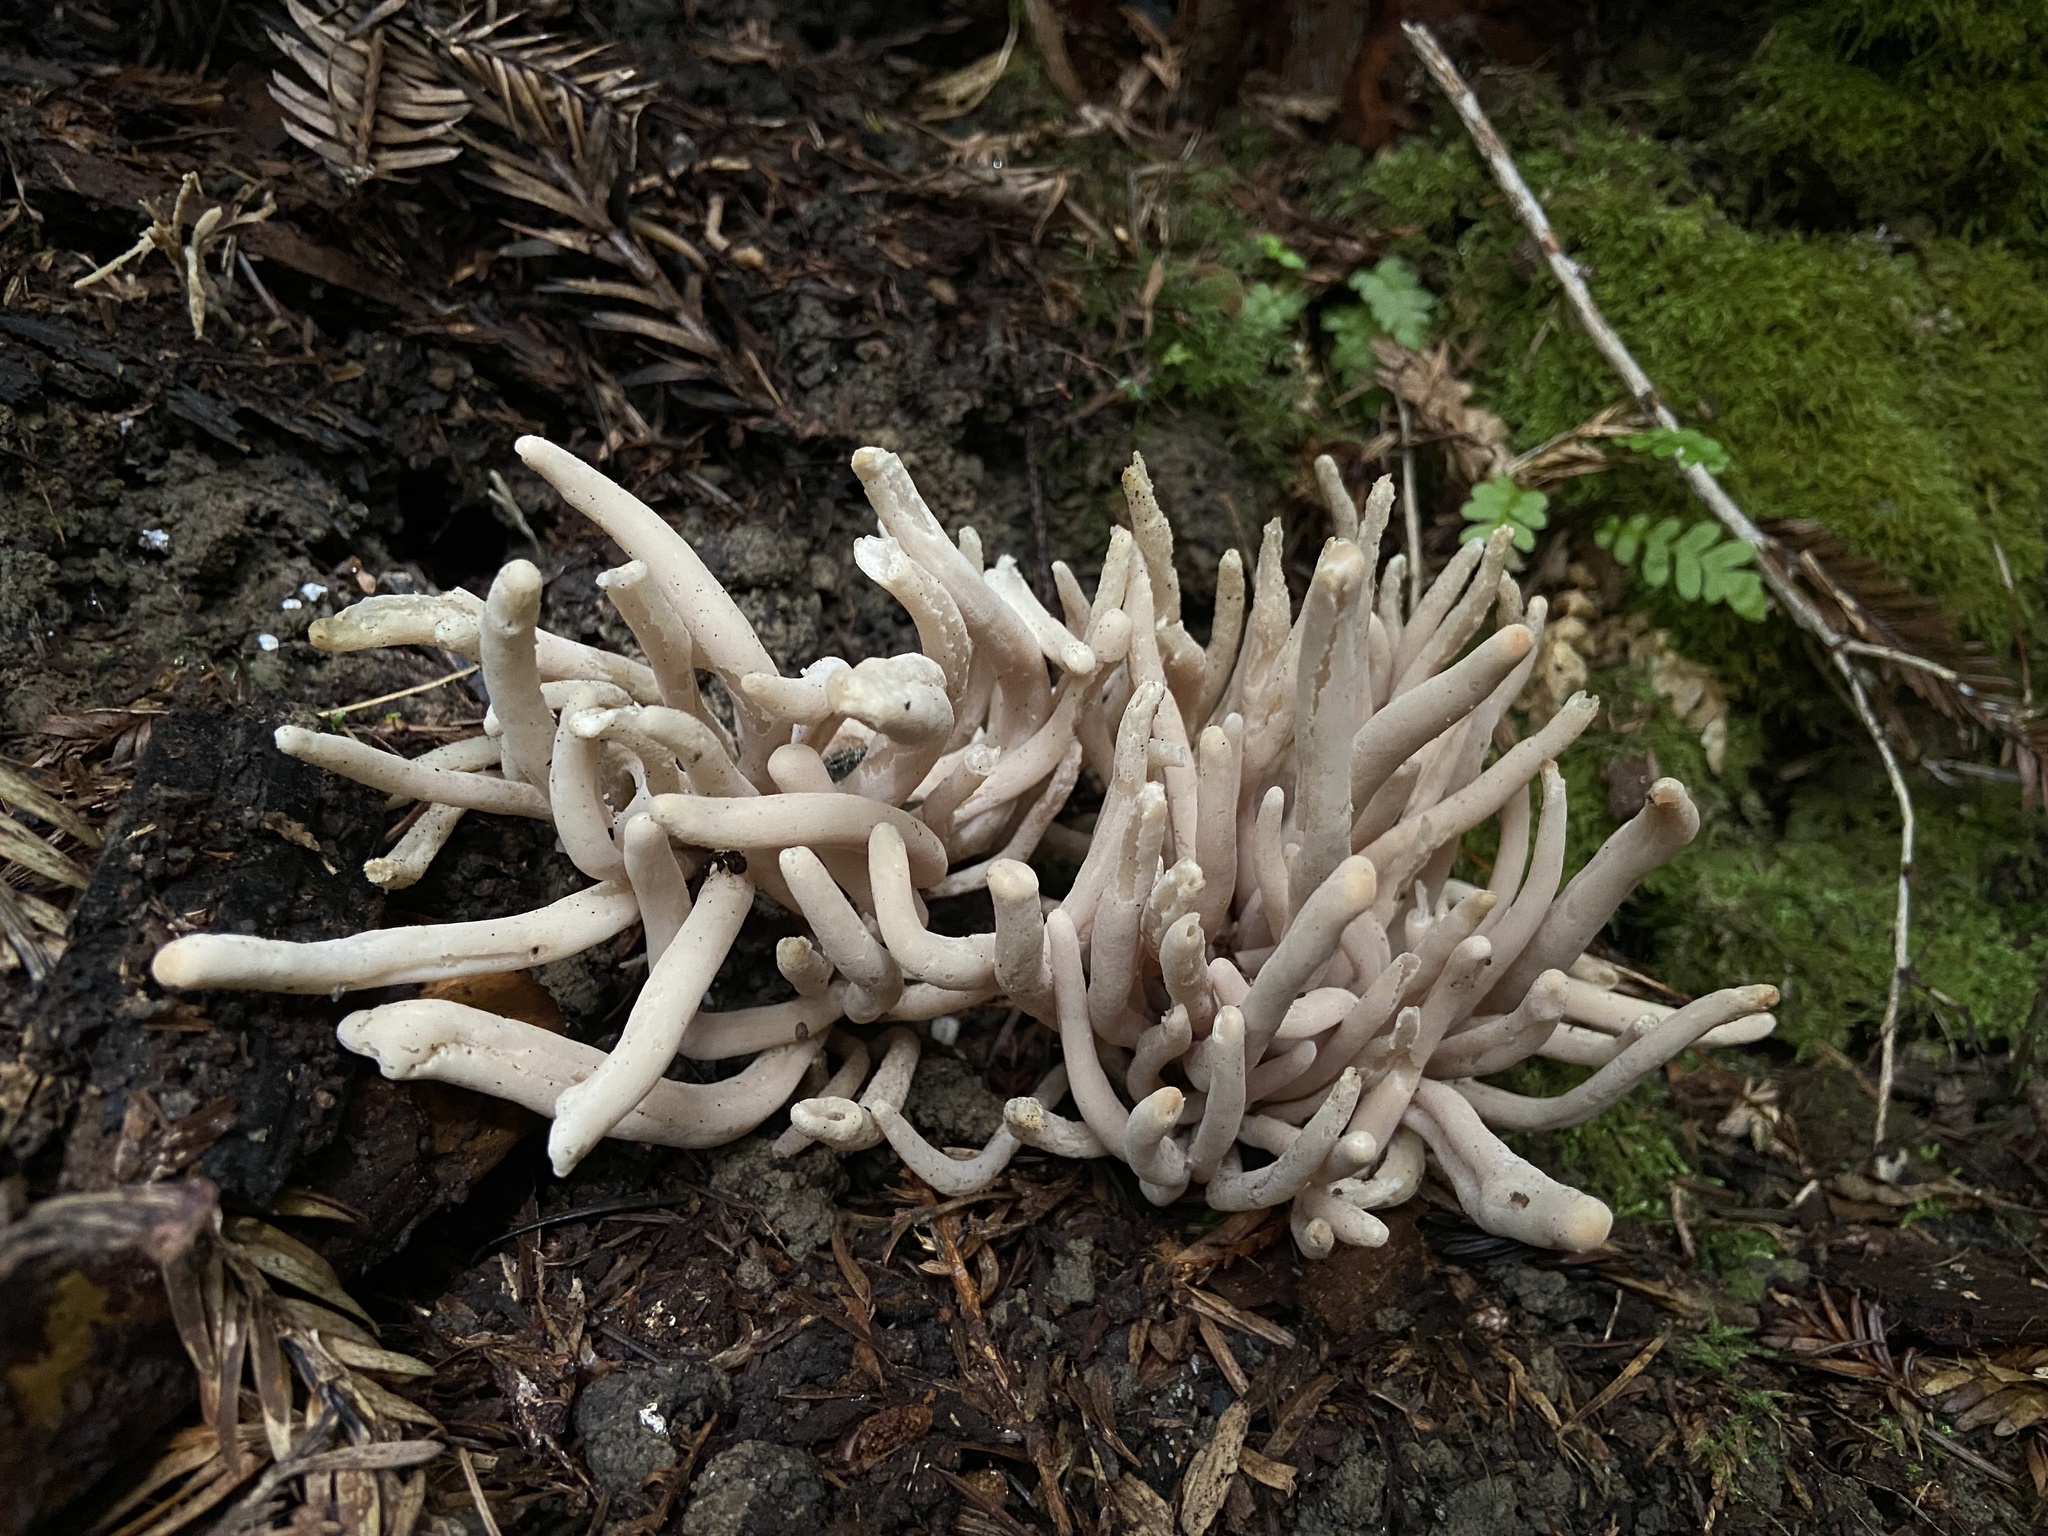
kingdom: Fungi
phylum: Basidiomycota
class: Agaricomycetes
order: Agaricales
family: Clavariaceae
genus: Clavaria
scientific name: Clavaria fumosa
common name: Smoky spindles
